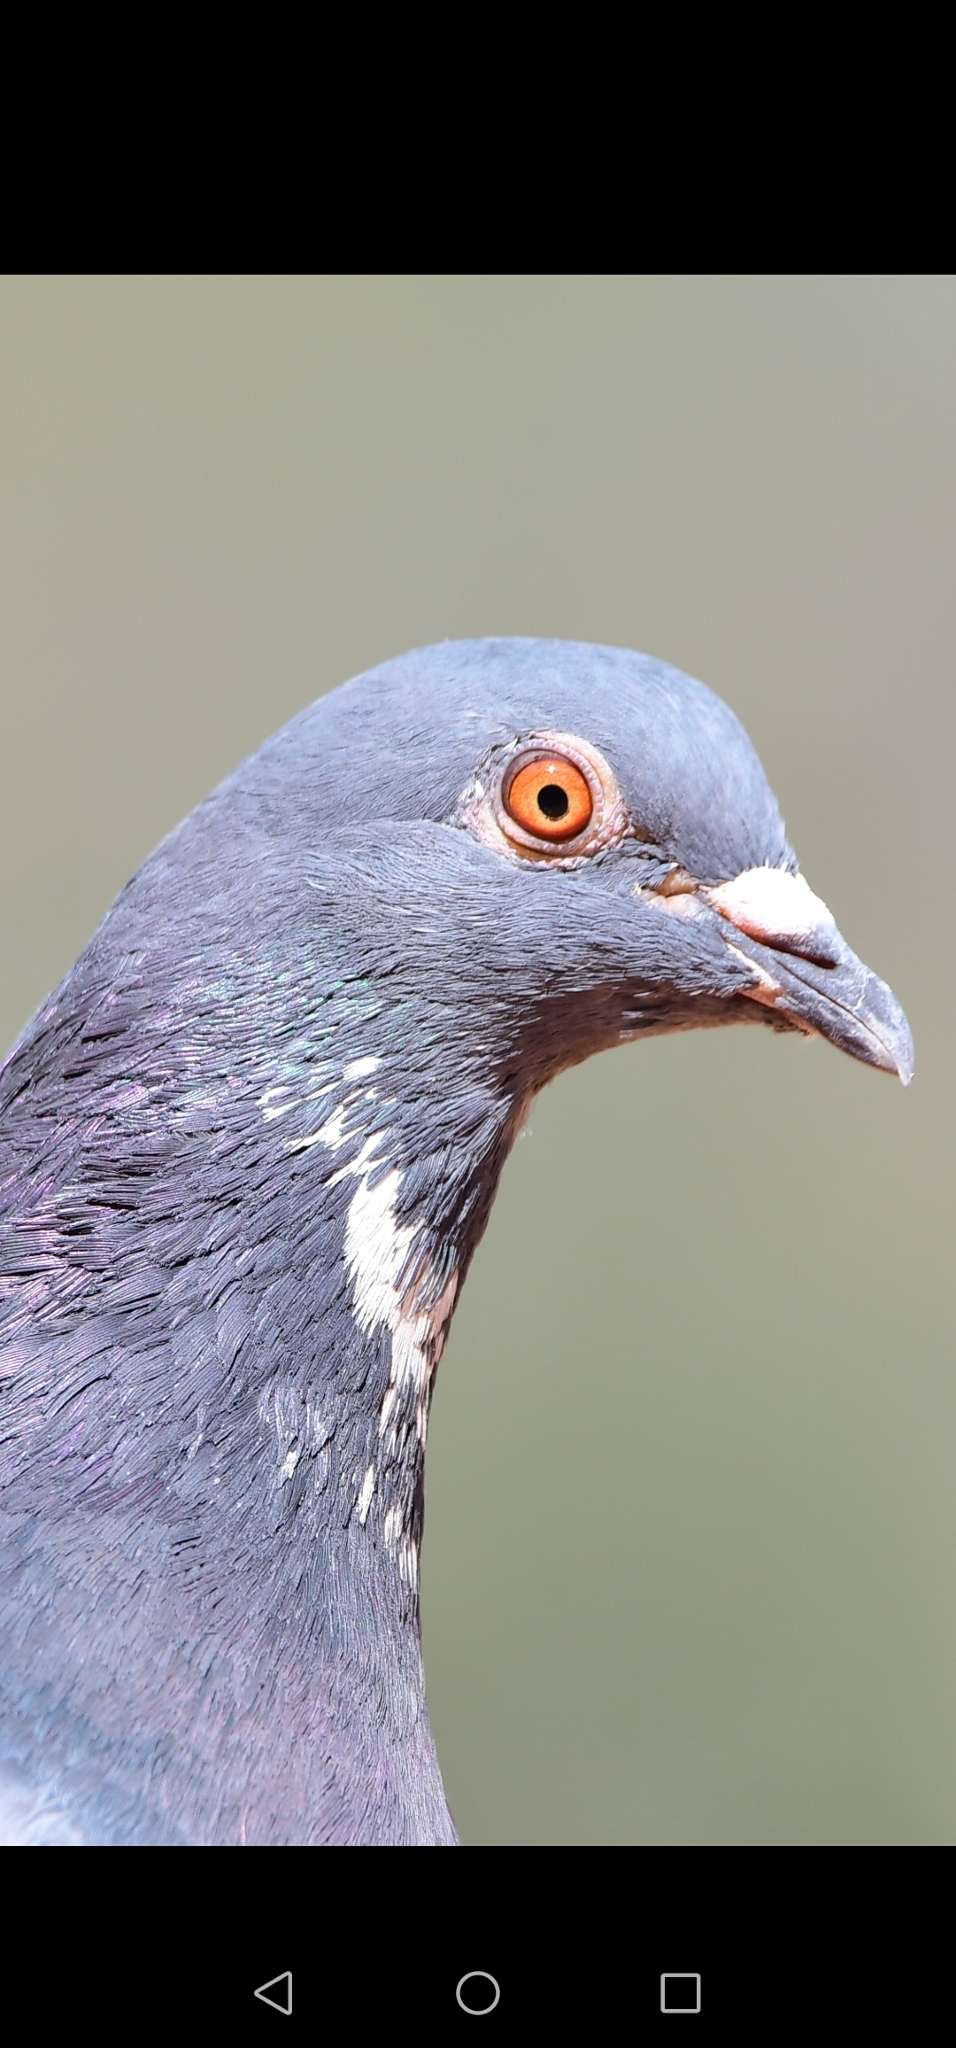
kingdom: Animalia
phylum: Chordata
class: Aves
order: Columbiformes
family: Columbidae
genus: Columba
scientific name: Columba livia
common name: Rock pigeon
